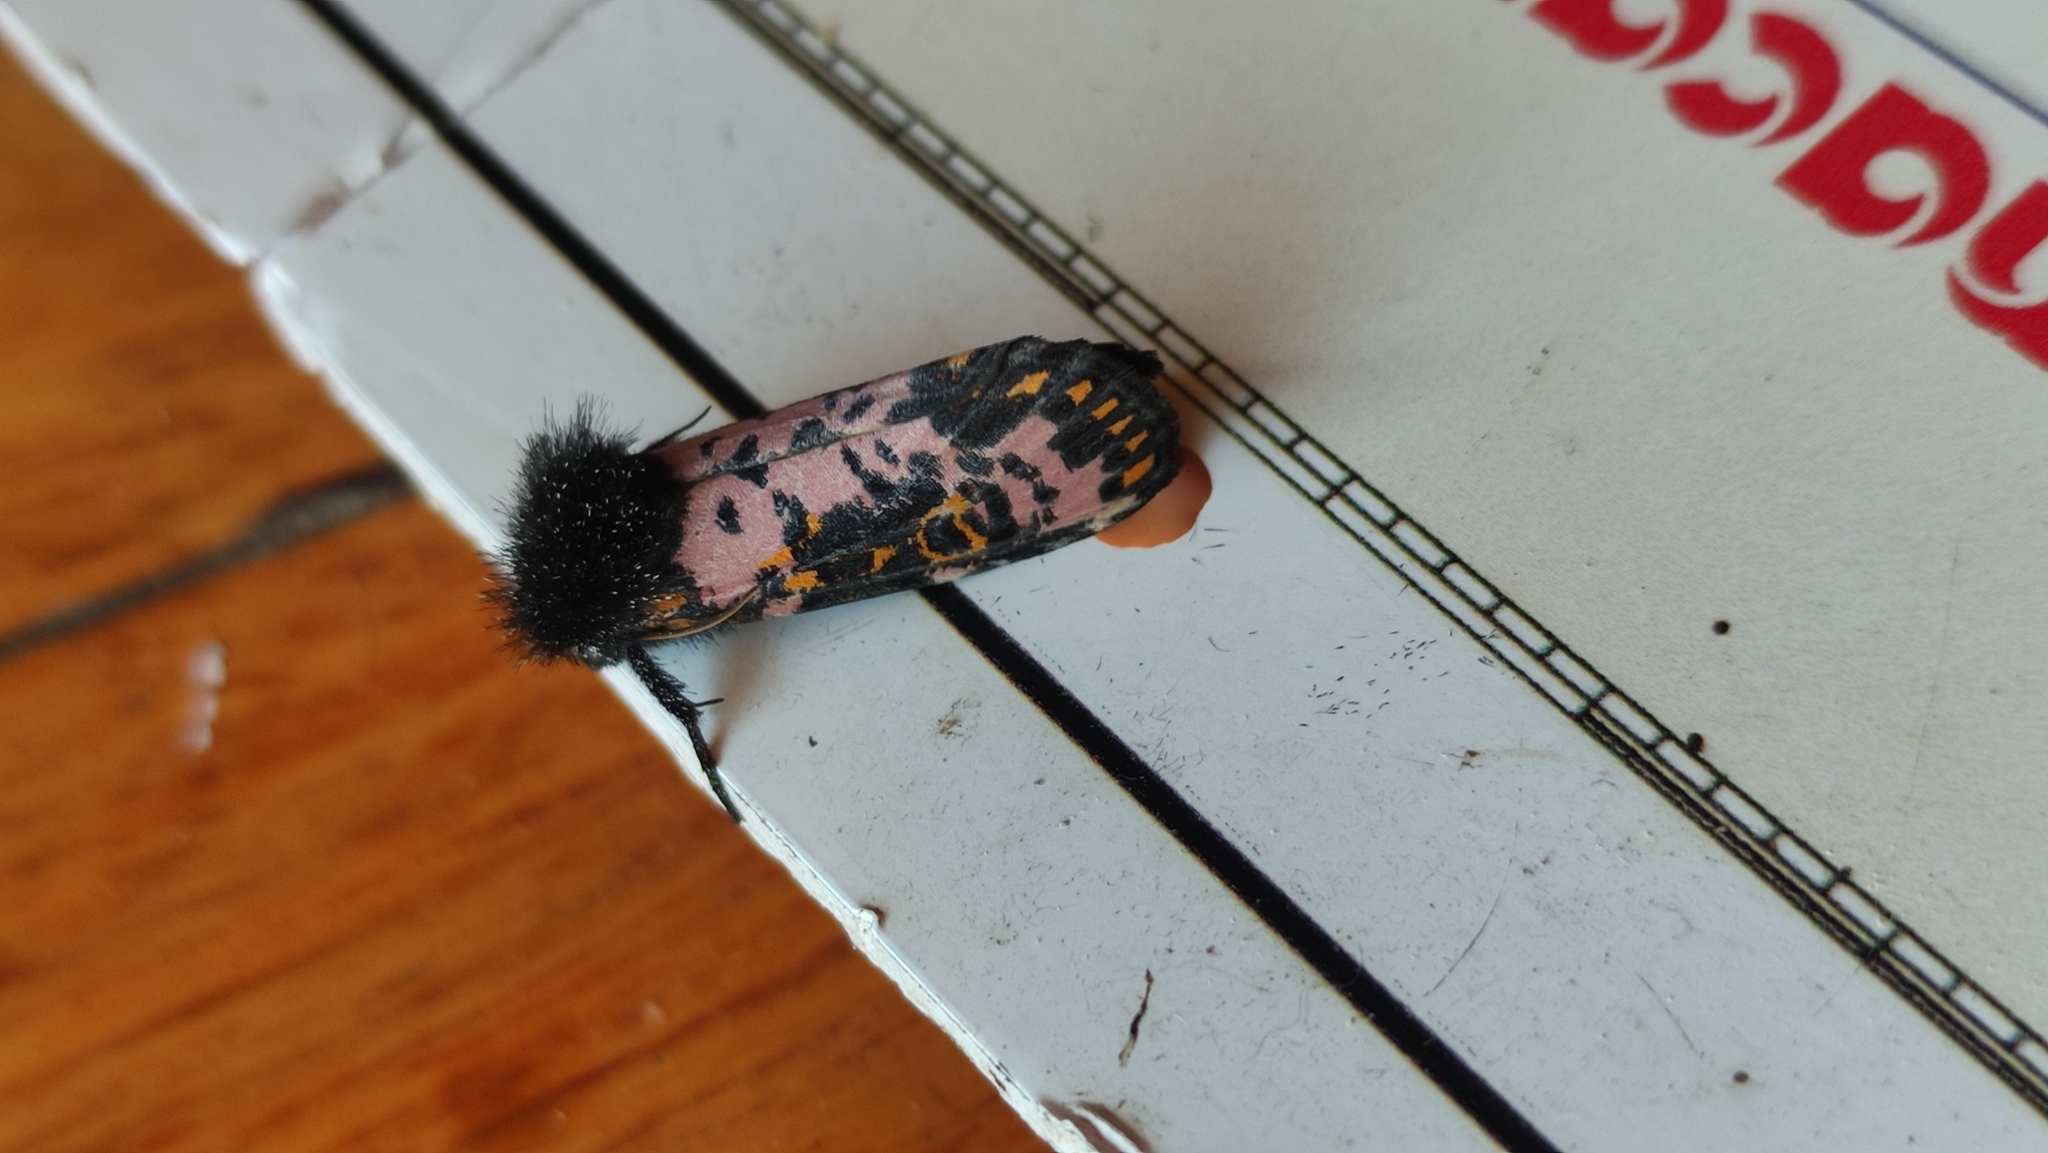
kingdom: Animalia
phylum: Arthropoda
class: Insecta
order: Lepidoptera
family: Noctuidae
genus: Xanthopastis
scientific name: Xanthopastis moctezuma
